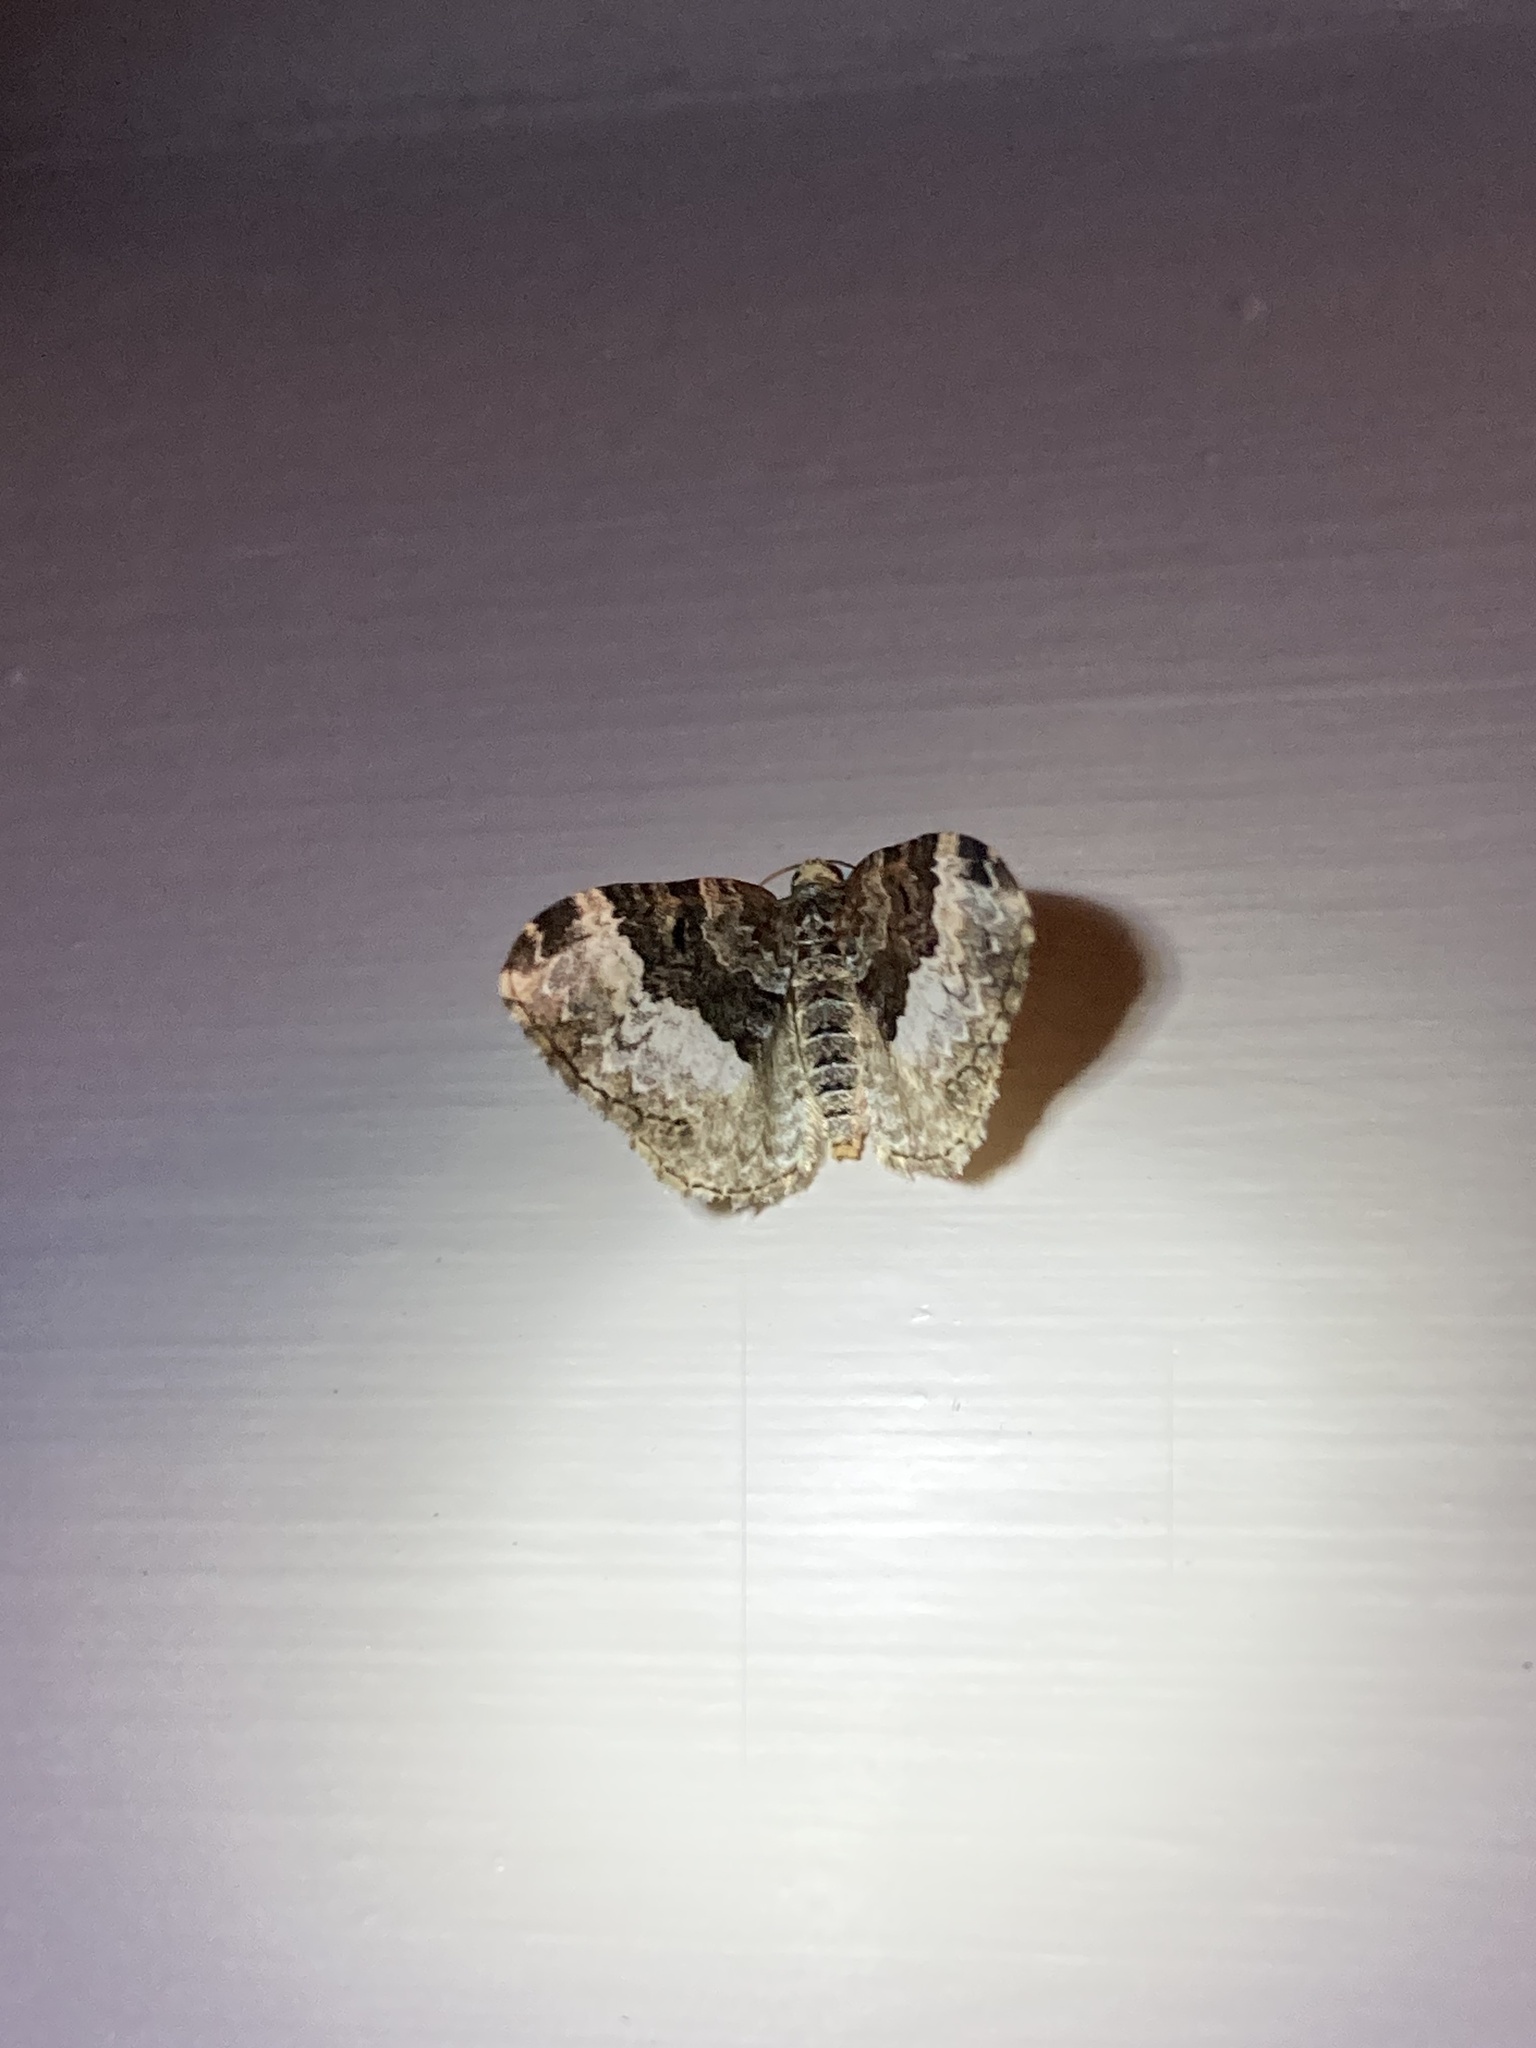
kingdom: Animalia
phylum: Arthropoda
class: Insecta
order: Lepidoptera
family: Geometridae
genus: Euphyia
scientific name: Euphyia intermediata
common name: Sharp-angled carpet
